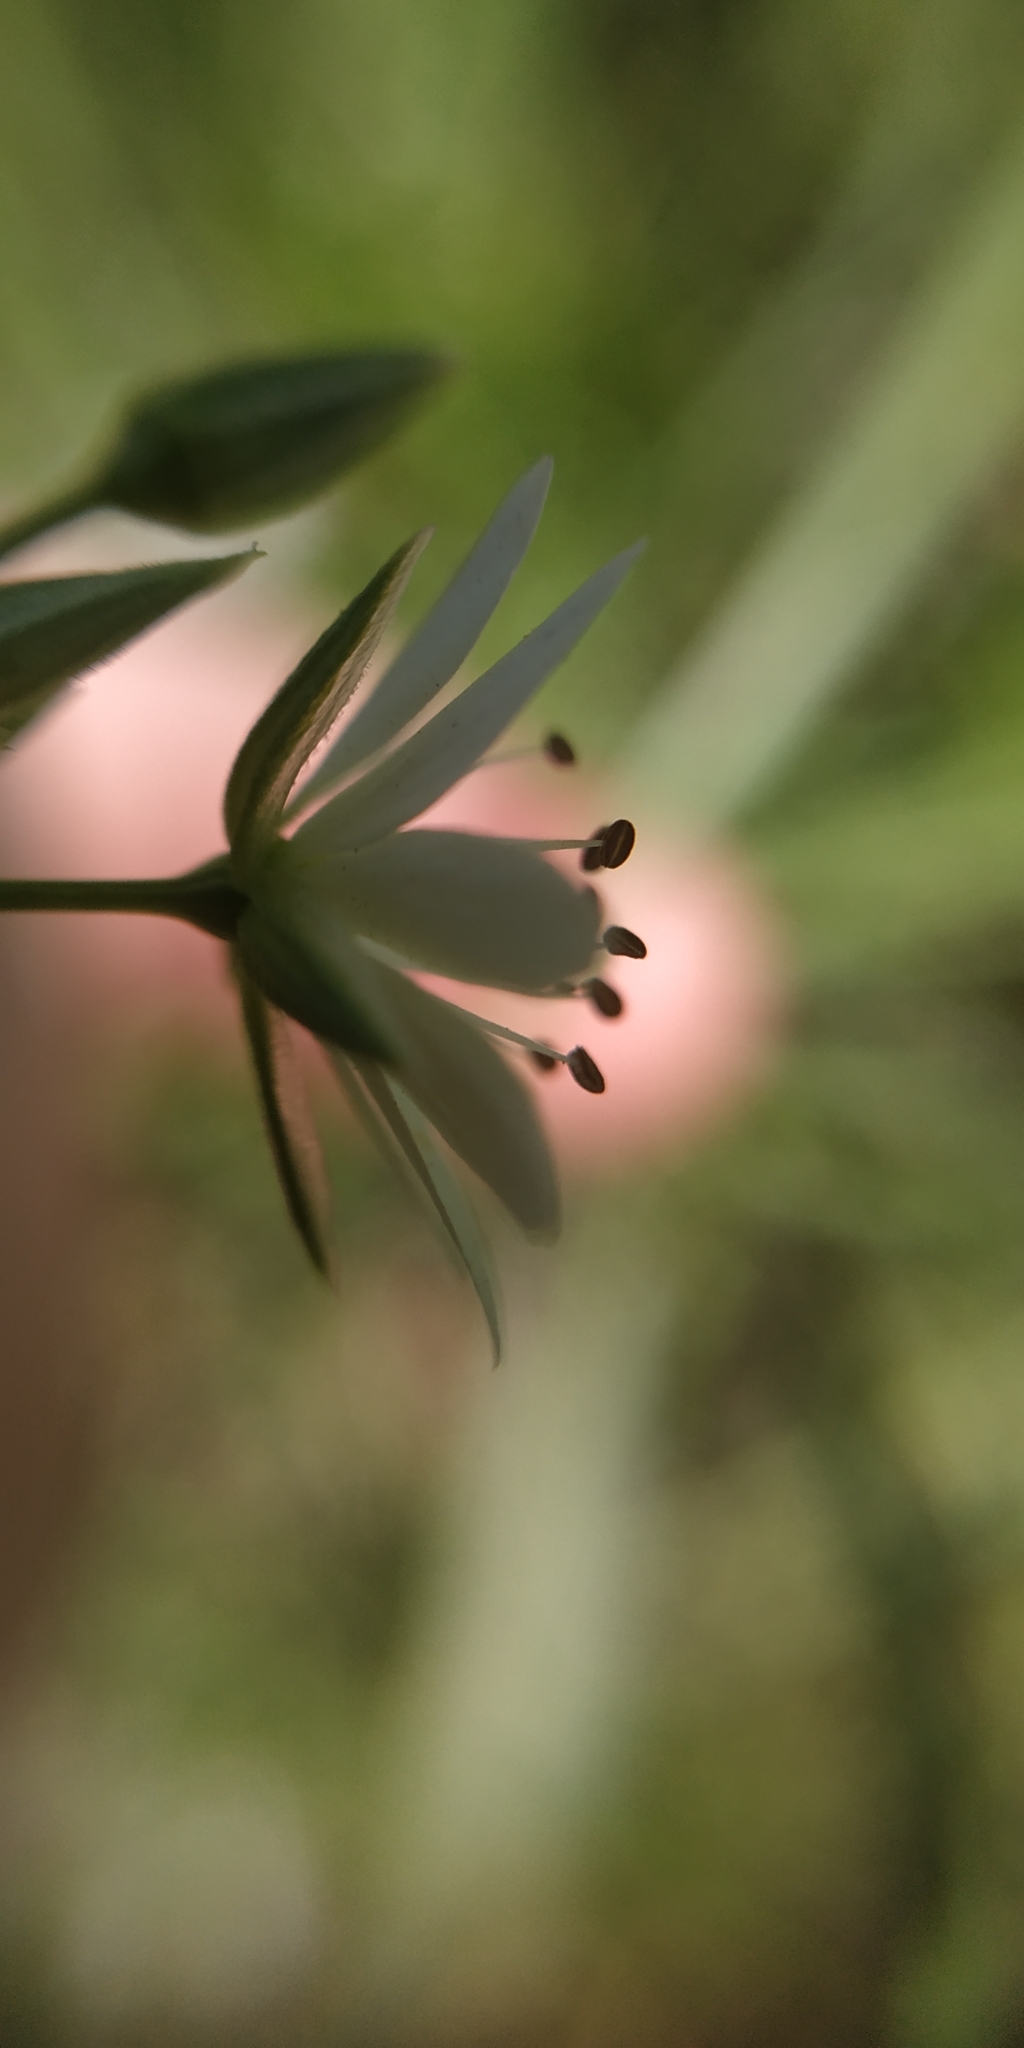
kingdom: Plantae
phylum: Tracheophyta
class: Magnoliopsida
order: Caryophyllales
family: Caryophyllaceae
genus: Stellaria
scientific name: Stellaria graminea
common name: Grass-like starwort
